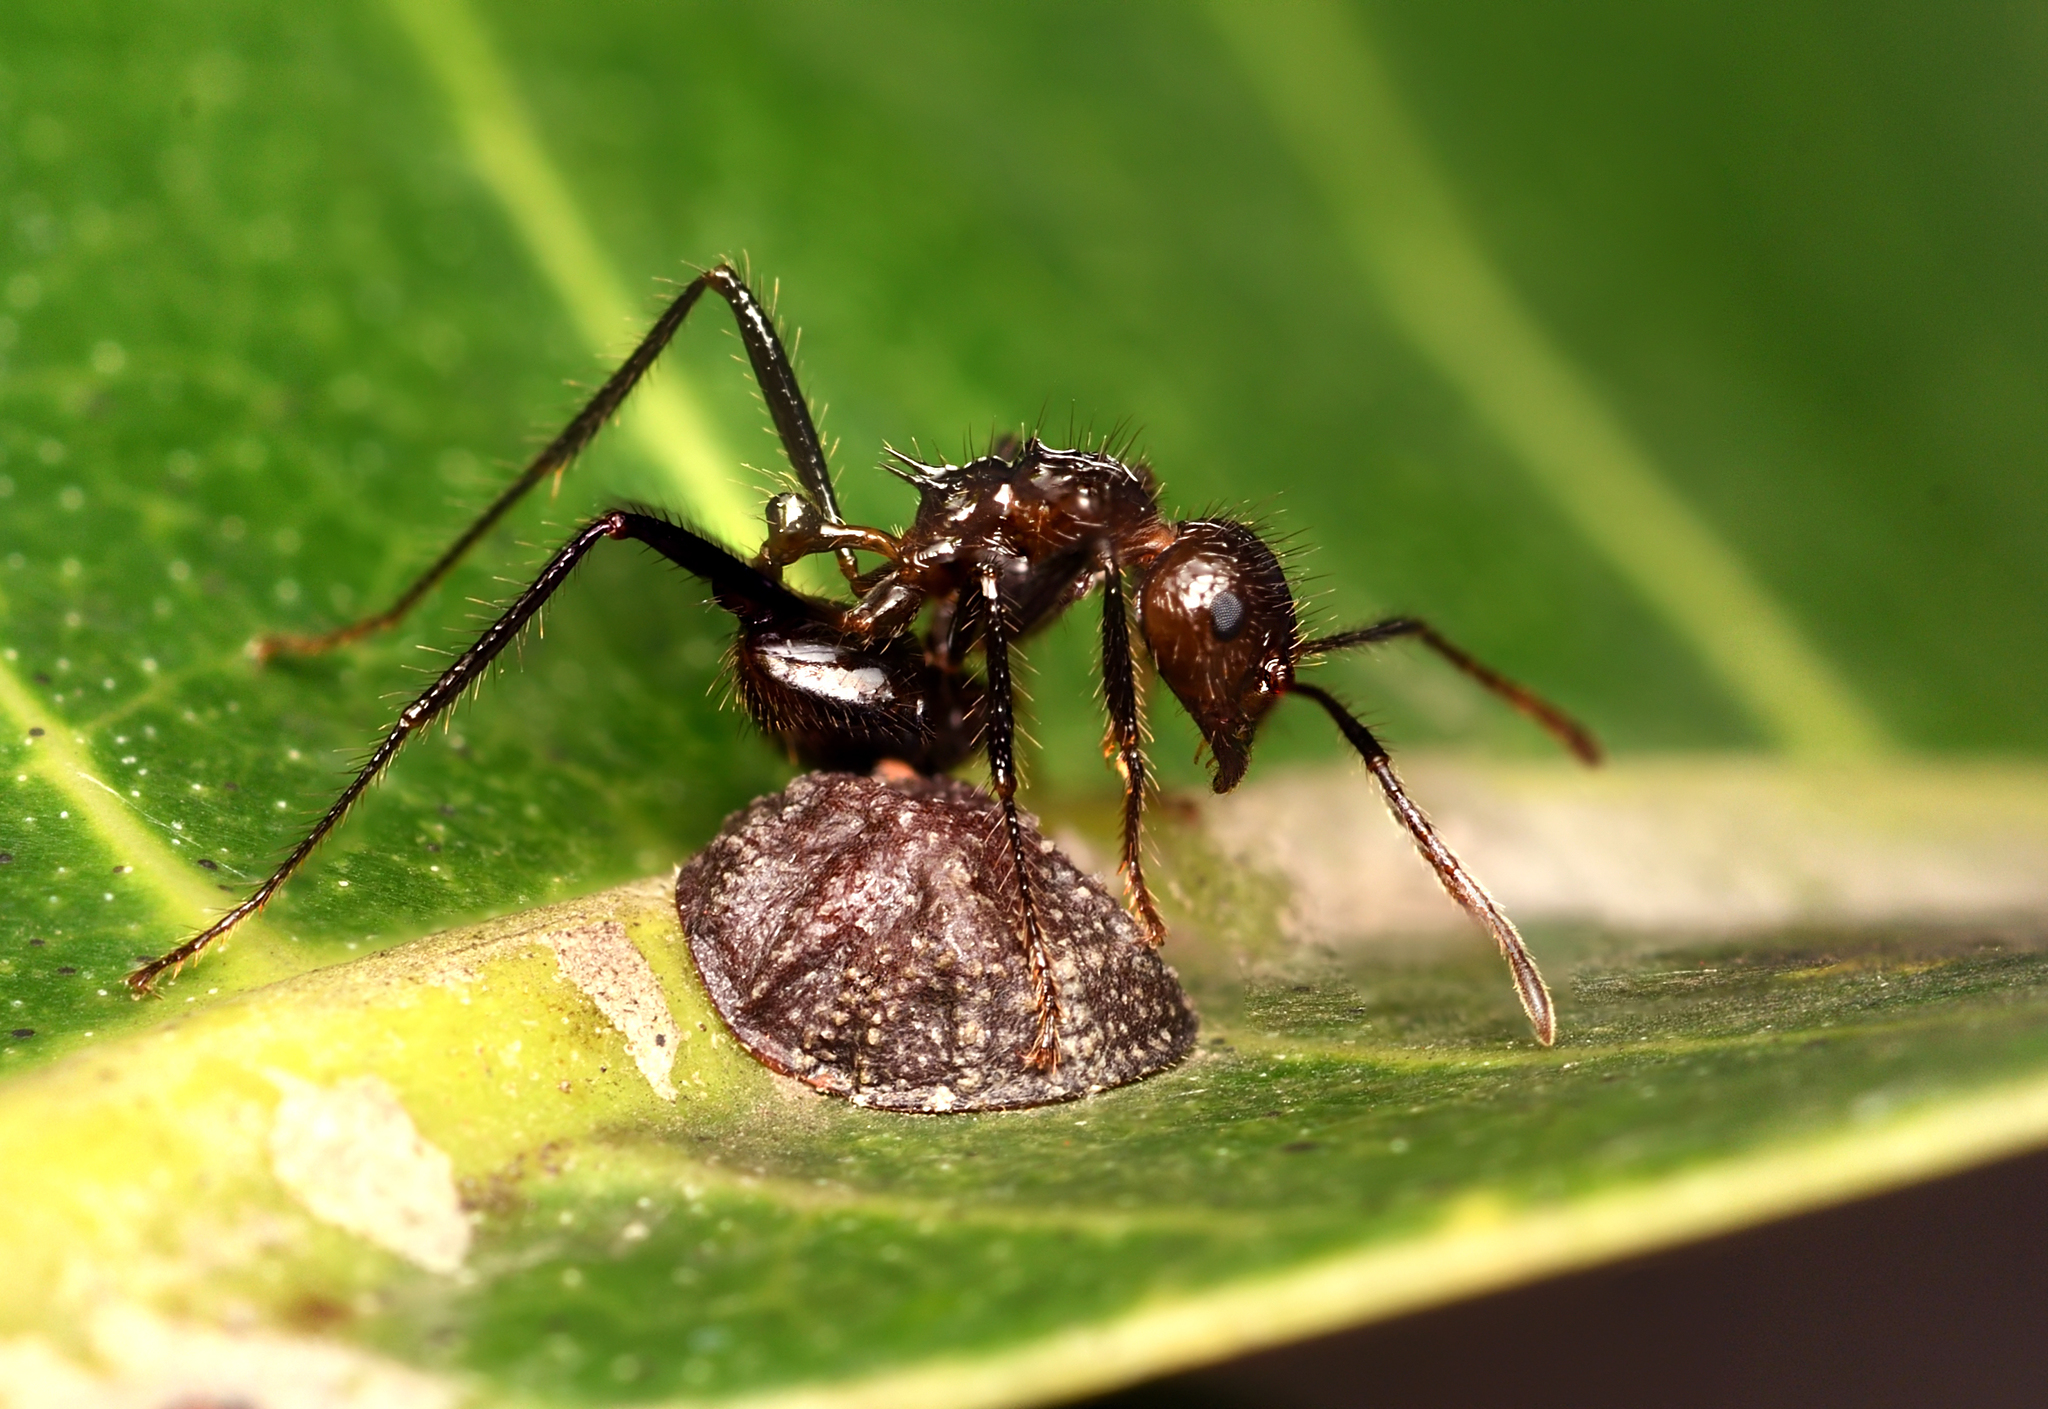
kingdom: Animalia
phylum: Arthropoda
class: Insecta
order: Hymenoptera
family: Formicidae
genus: Myrmicaria
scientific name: Myrmicaria brunnea
